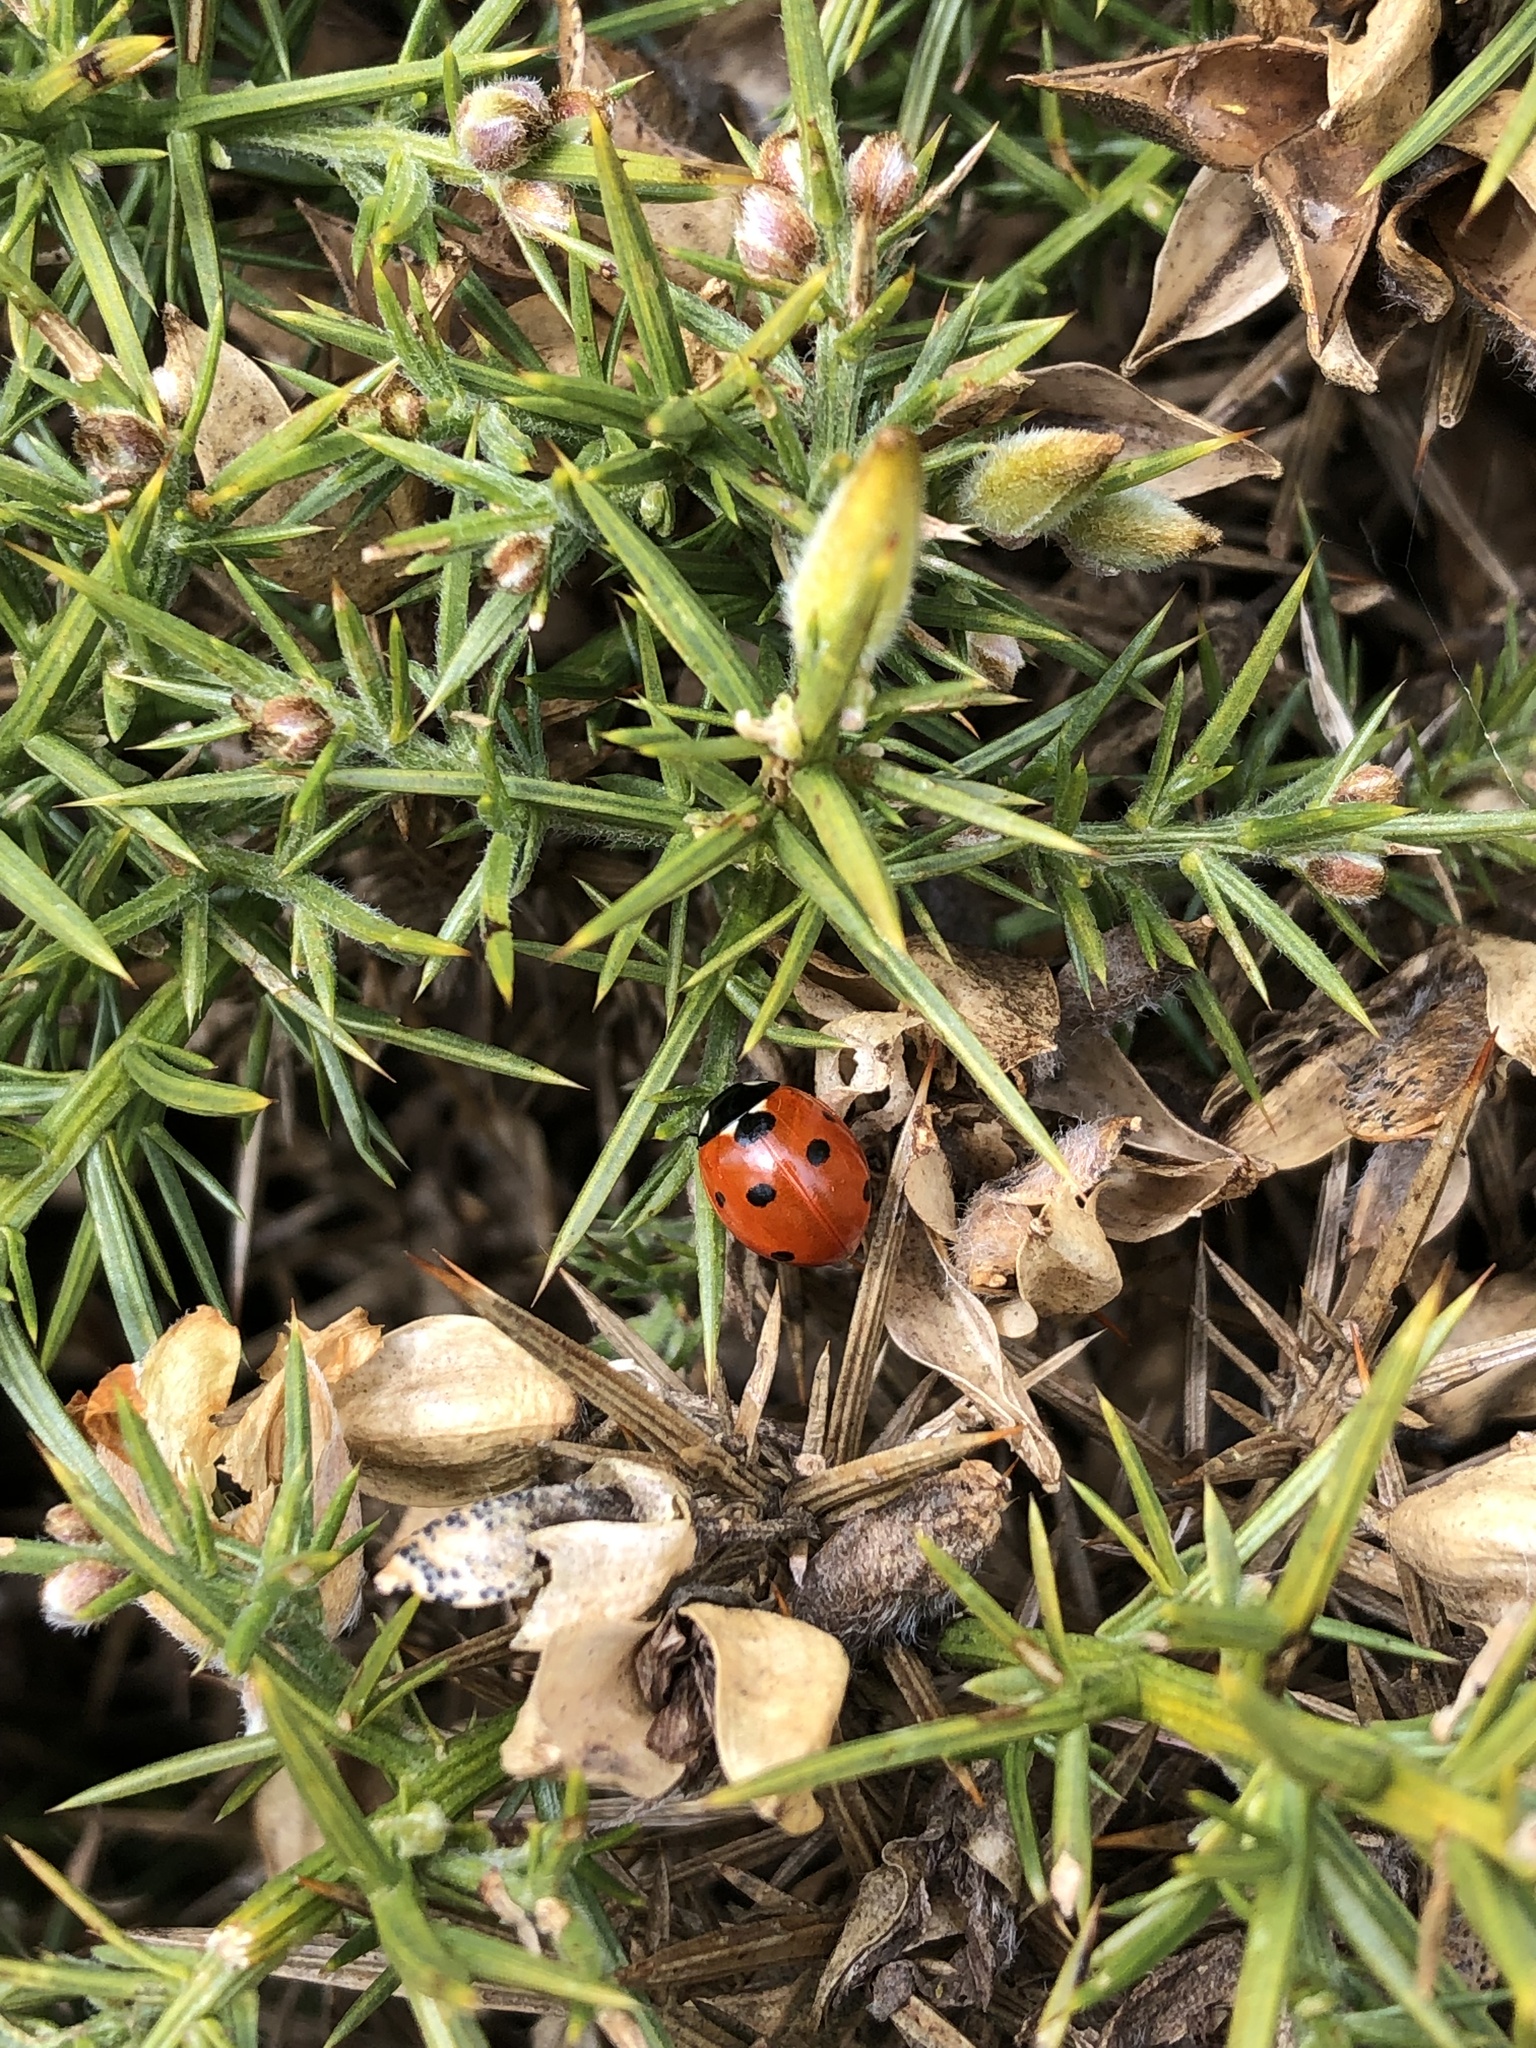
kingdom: Animalia
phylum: Arthropoda
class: Insecta
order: Coleoptera
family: Coccinellidae
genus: Coccinella
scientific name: Coccinella septempunctata
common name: Sevenspotted lady beetle
